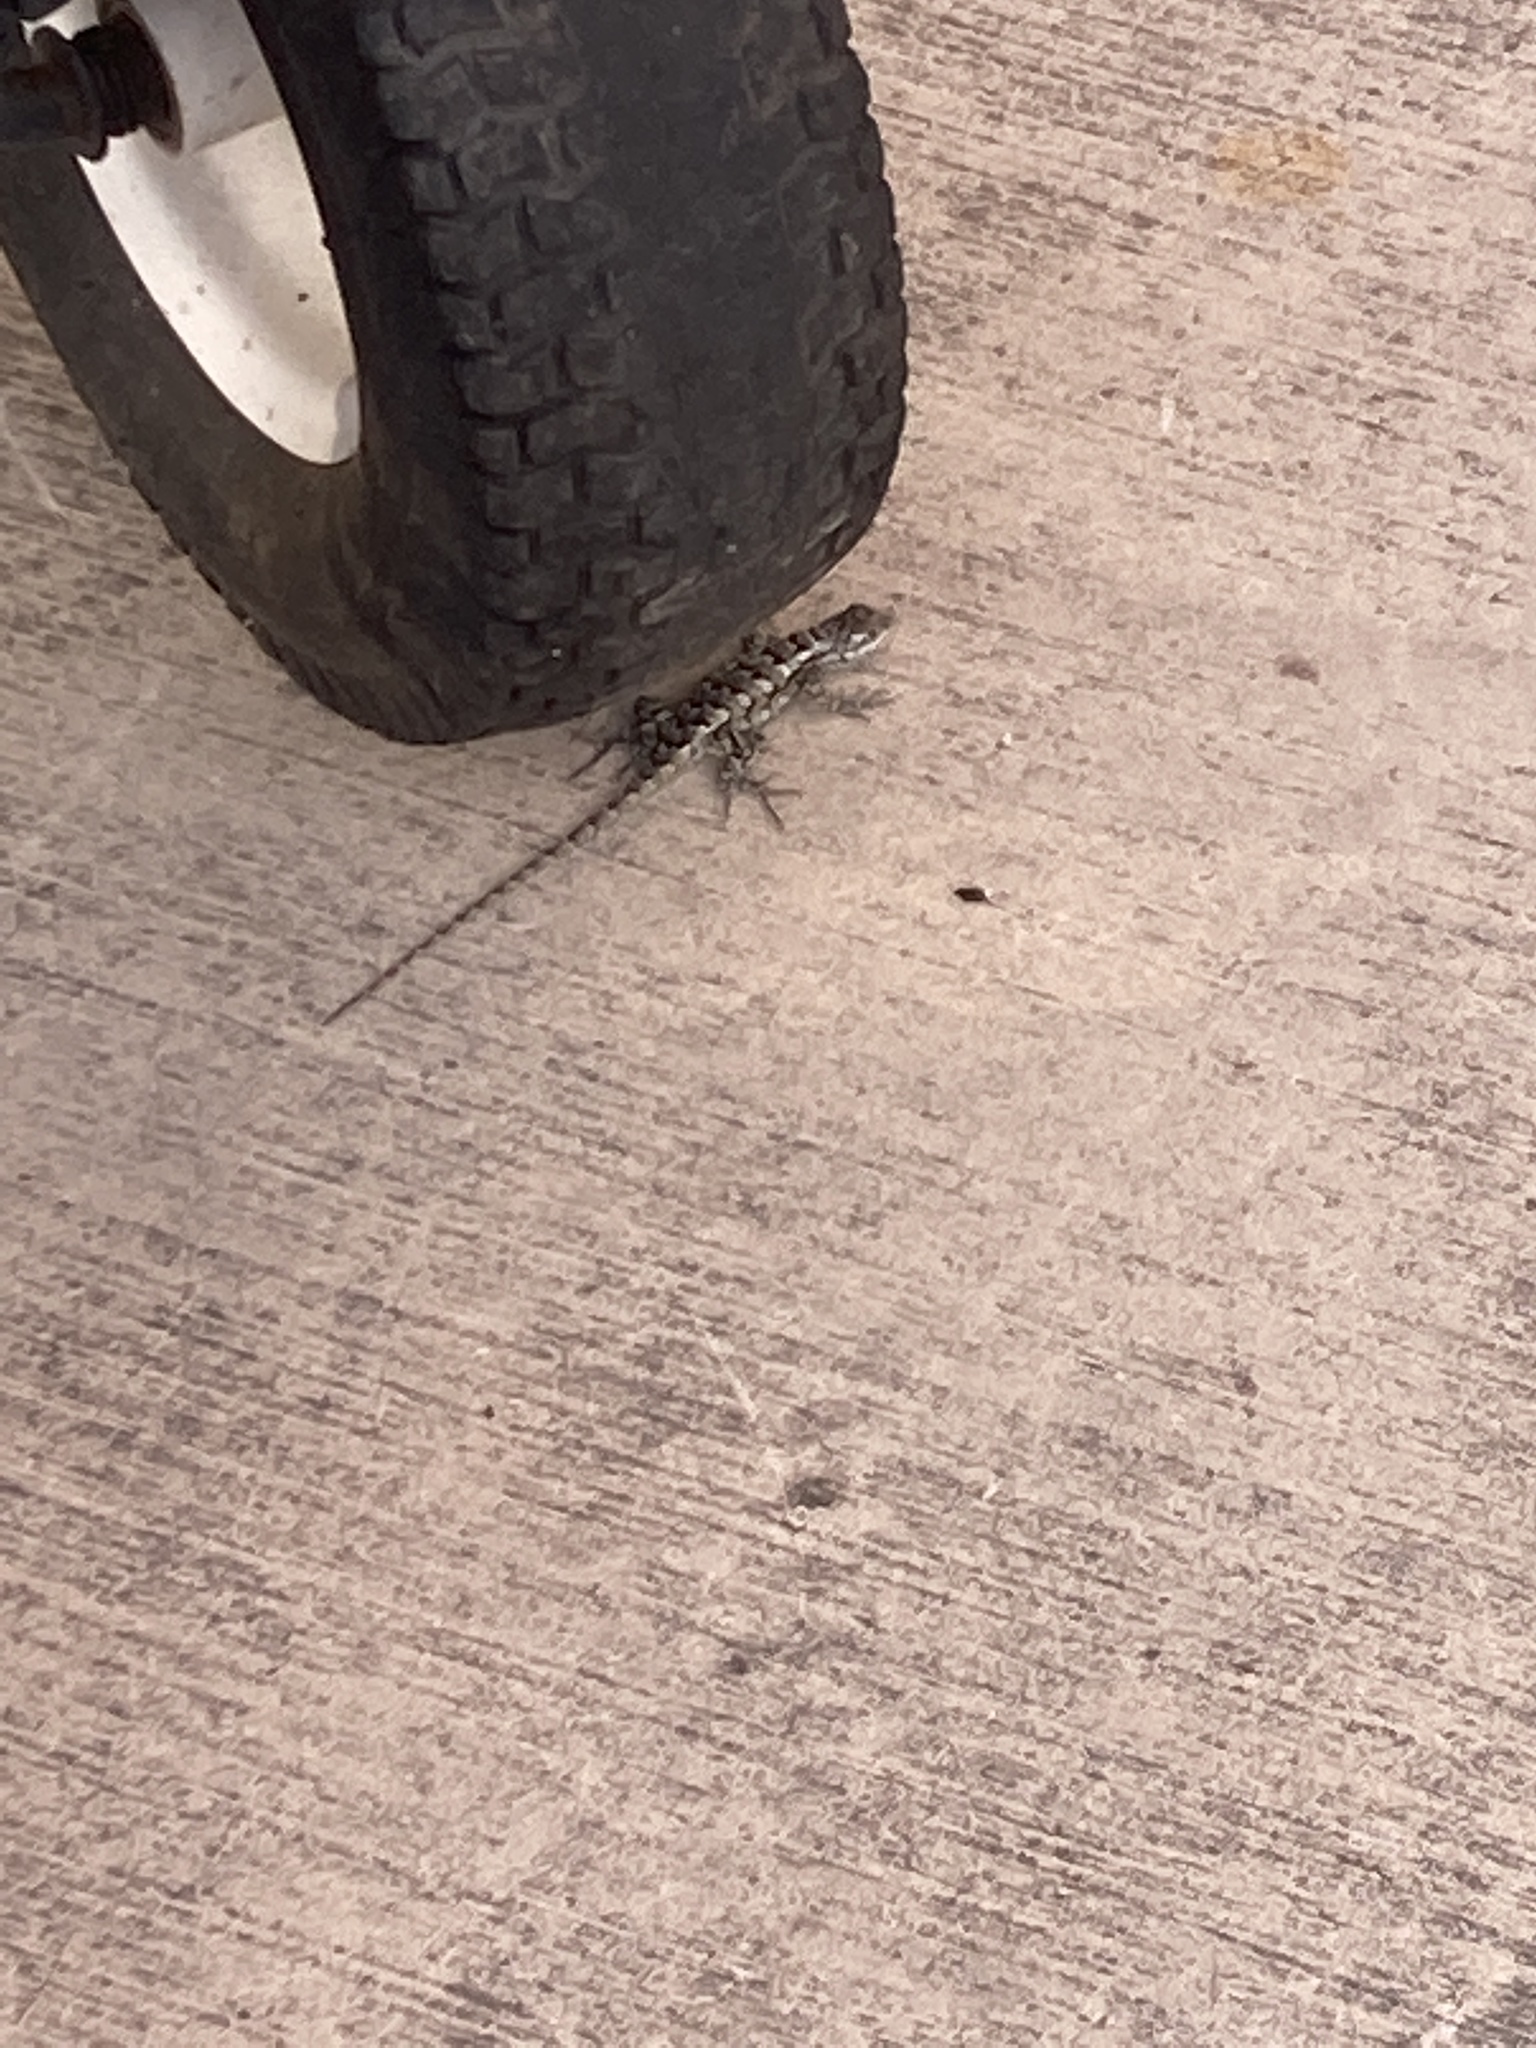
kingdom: Animalia
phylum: Chordata
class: Squamata
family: Phrynosomatidae
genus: Sceloporus
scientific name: Sceloporus olivaceus
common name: Texas spiny lizard
